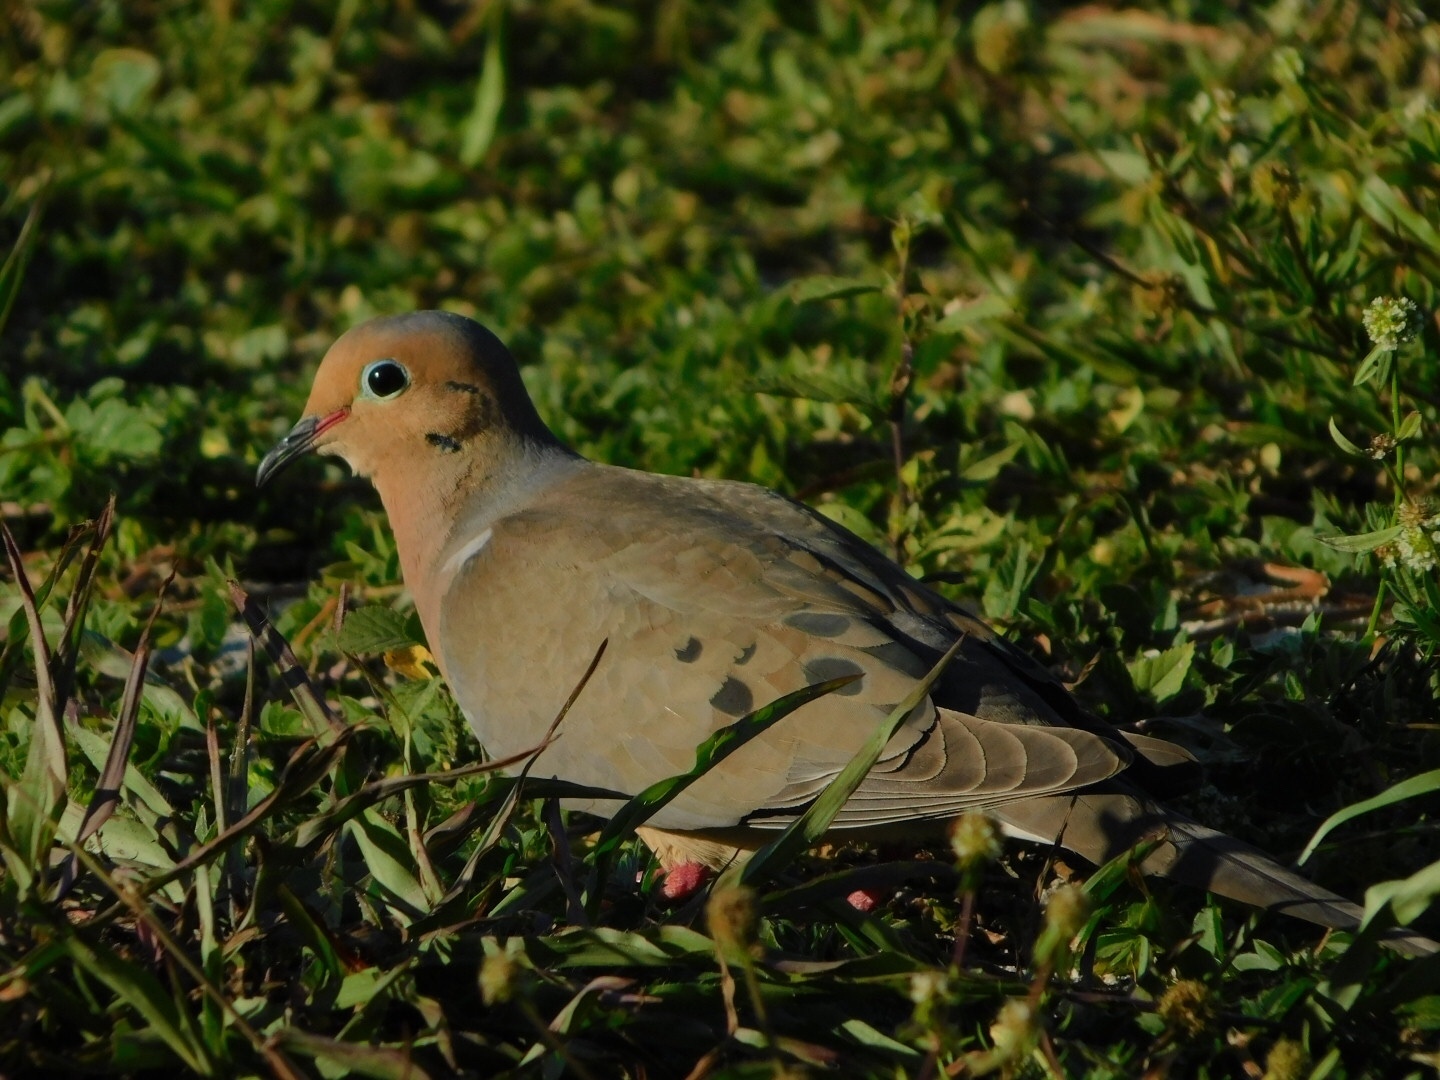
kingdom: Animalia
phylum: Chordata
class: Aves
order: Columbiformes
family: Columbidae
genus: Zenaida
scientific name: Zenaida macroura
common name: Mourning dove
